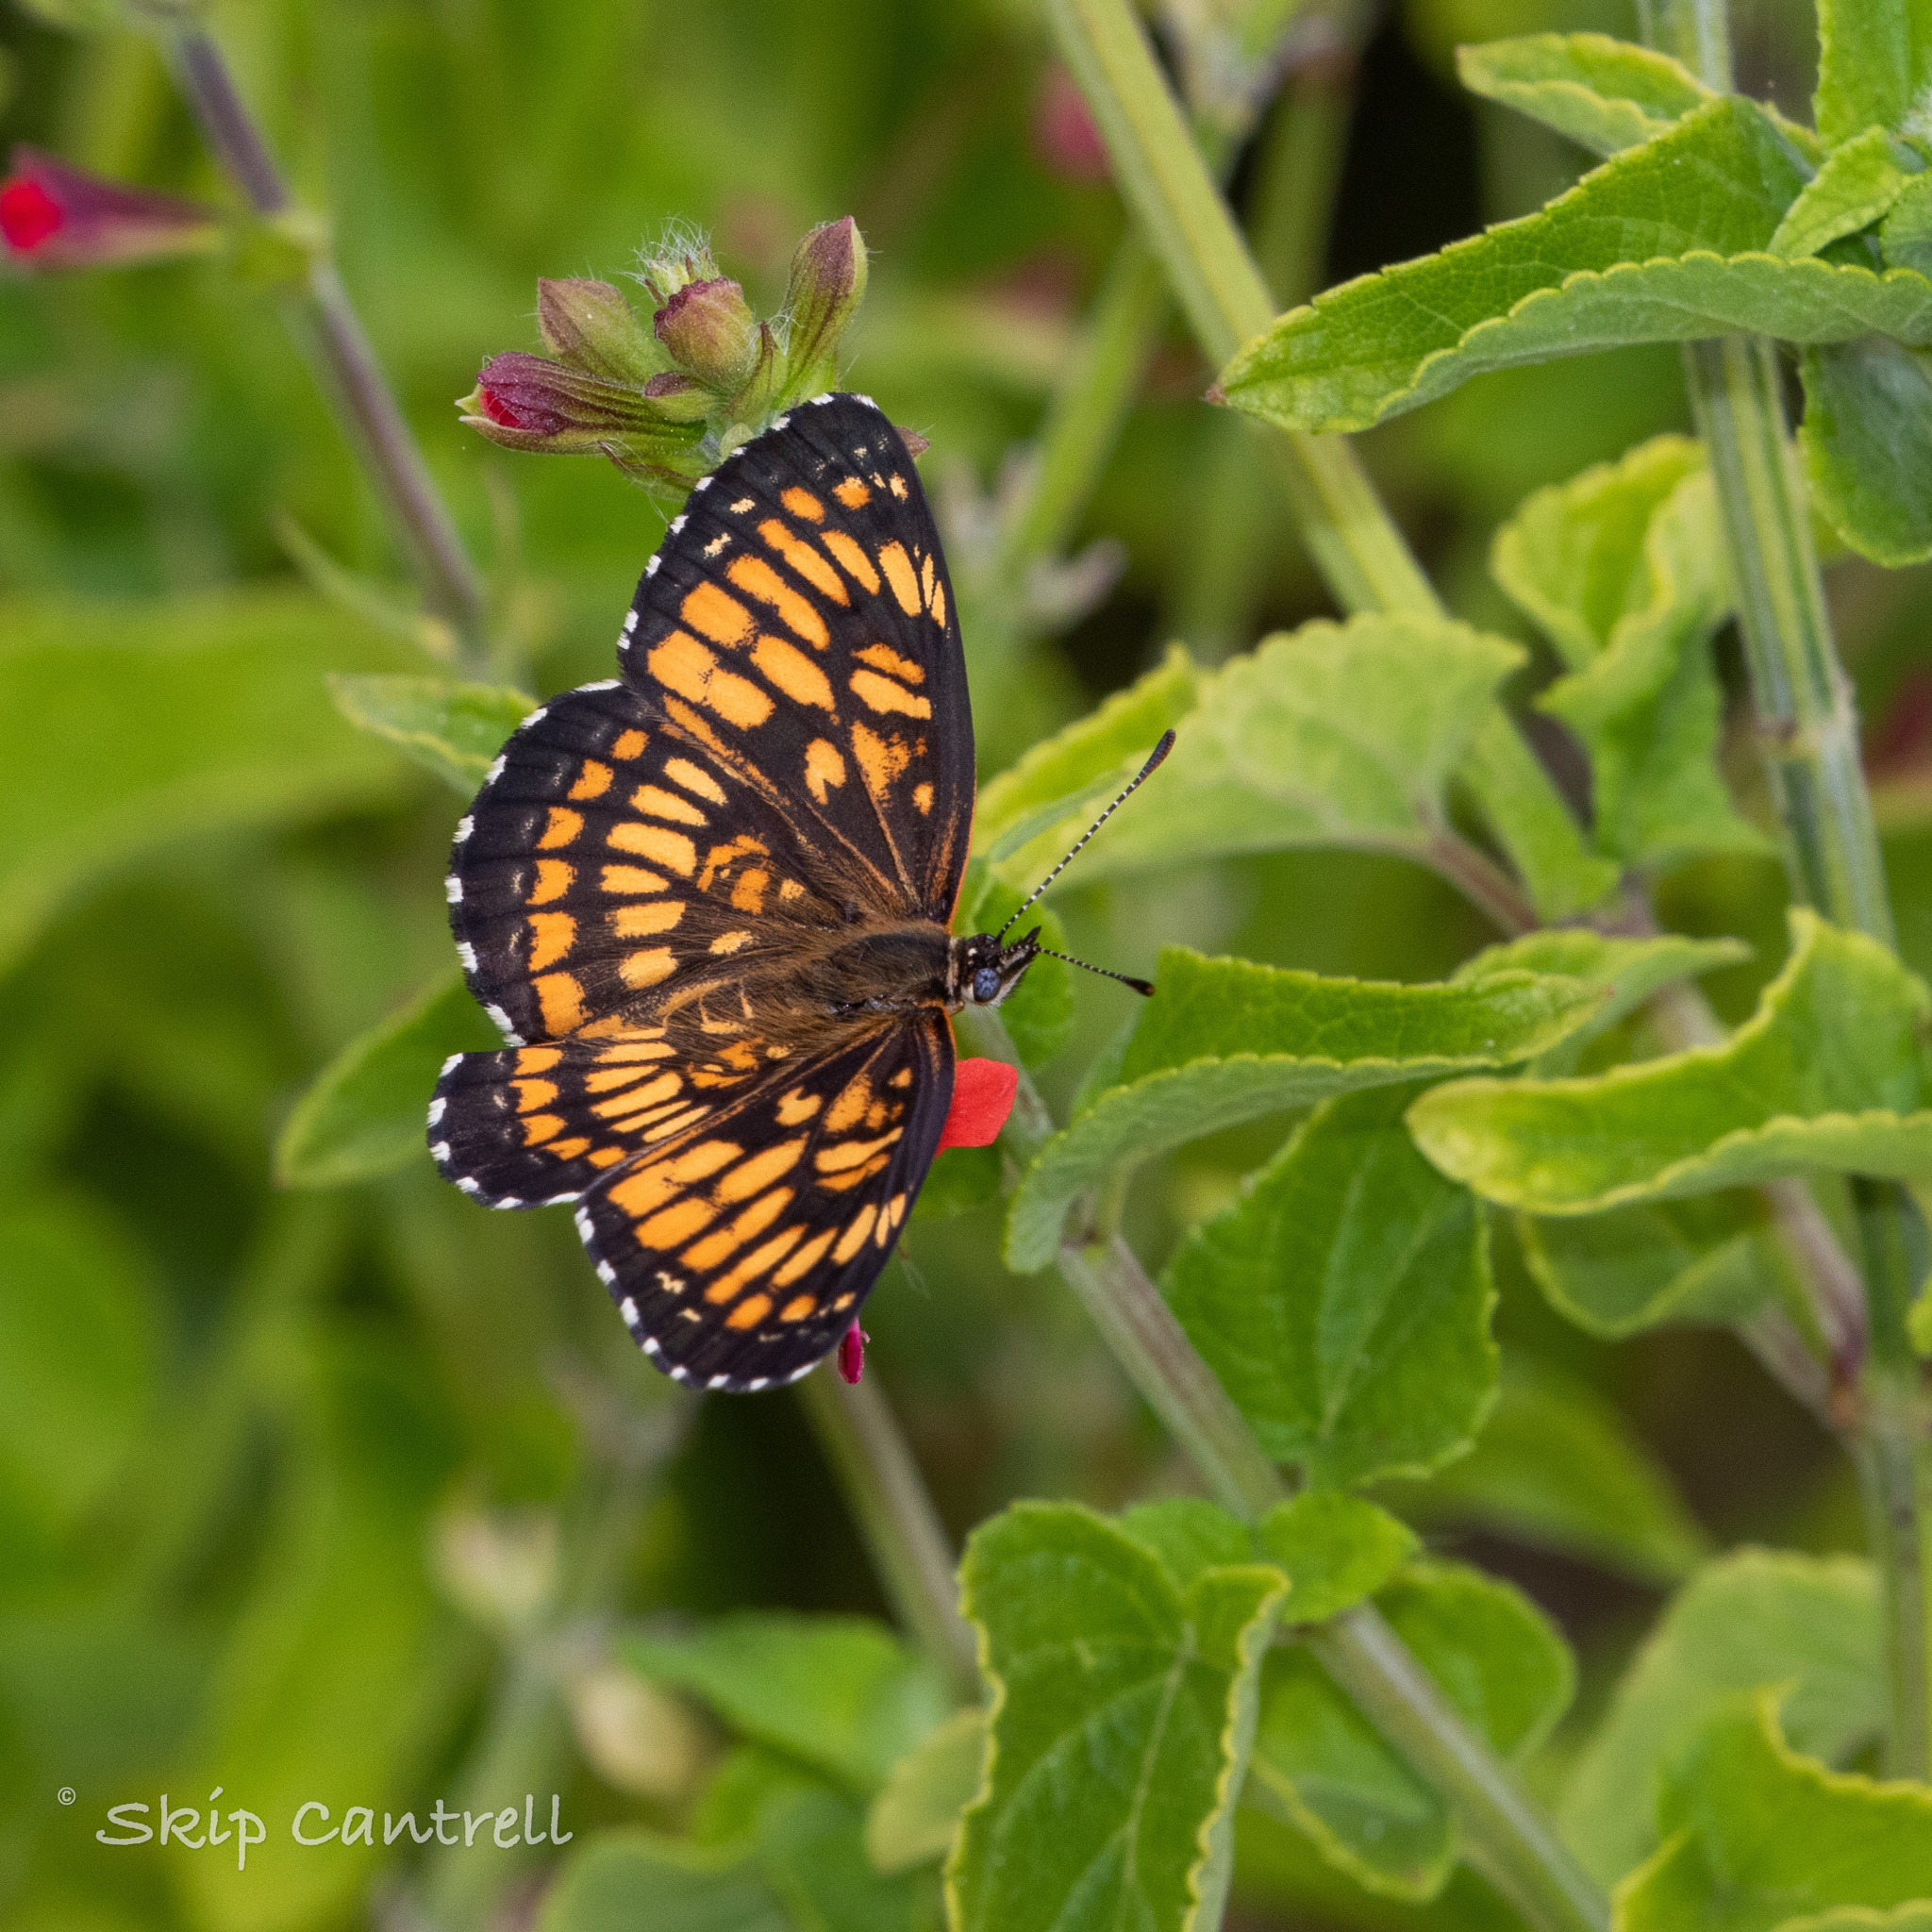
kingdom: Animalia
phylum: Arthropoda
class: Insecta
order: Lepidoptera
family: Nymphalidae
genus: Thessalia
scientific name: Thessalia theona
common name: Nymphalid moth
